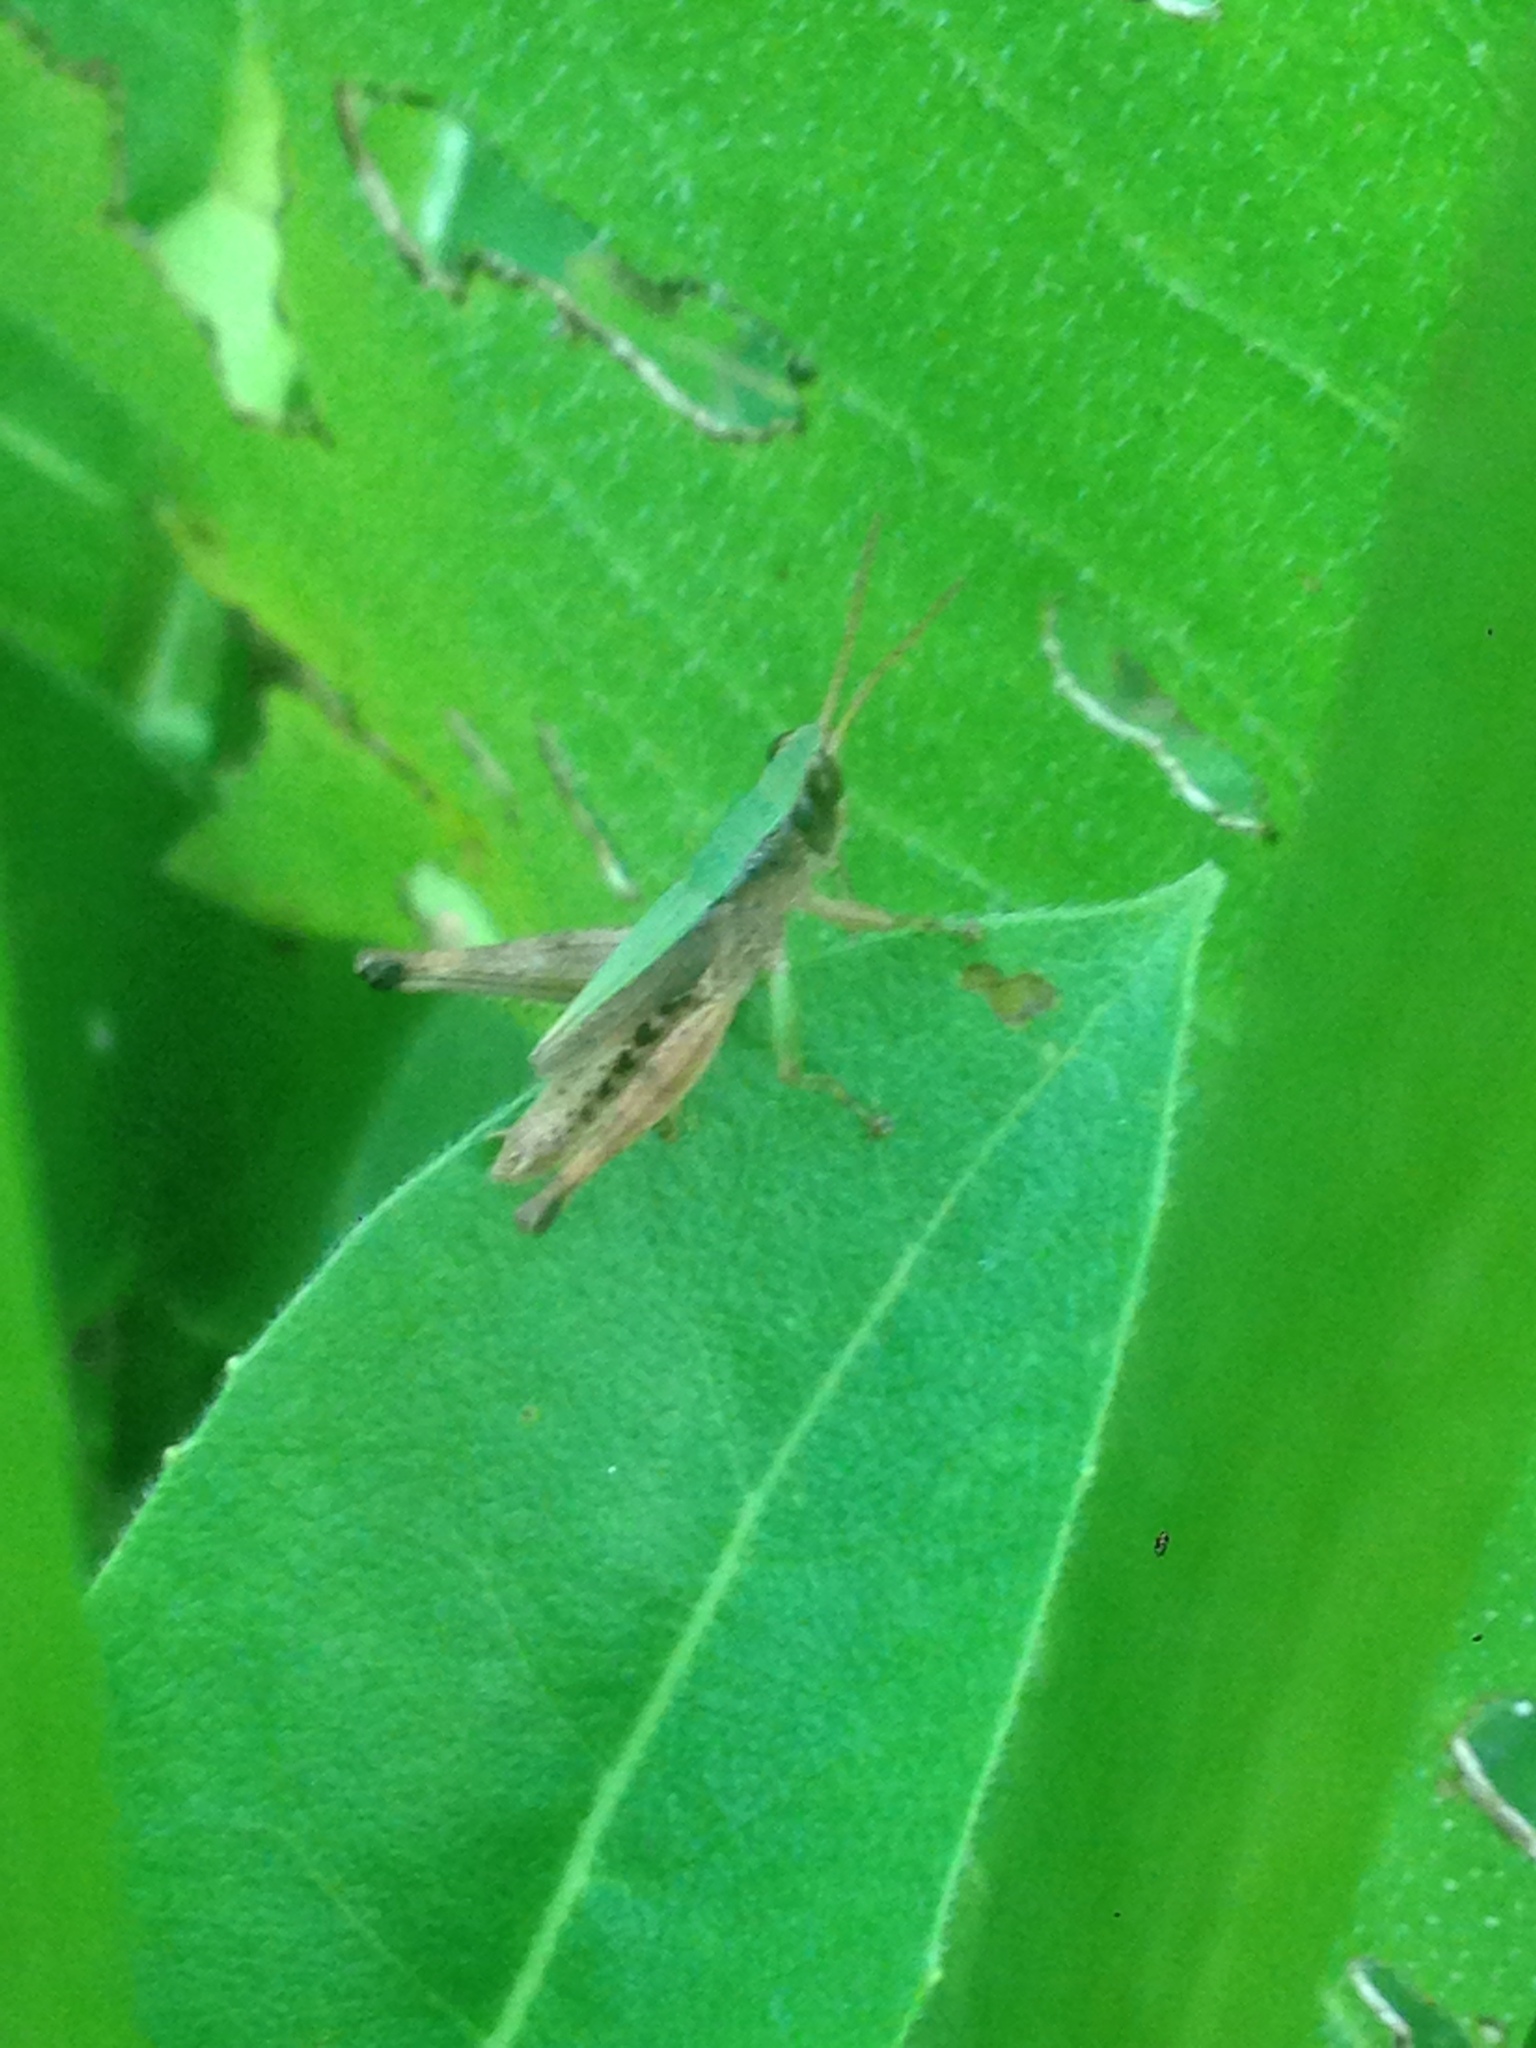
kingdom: Animalia
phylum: Arthropoda
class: Insecta
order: Orthoptera
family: Acrididae
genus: Dichromorpha
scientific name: Dichromorpha viridis
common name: Short-winged green grasshopper
